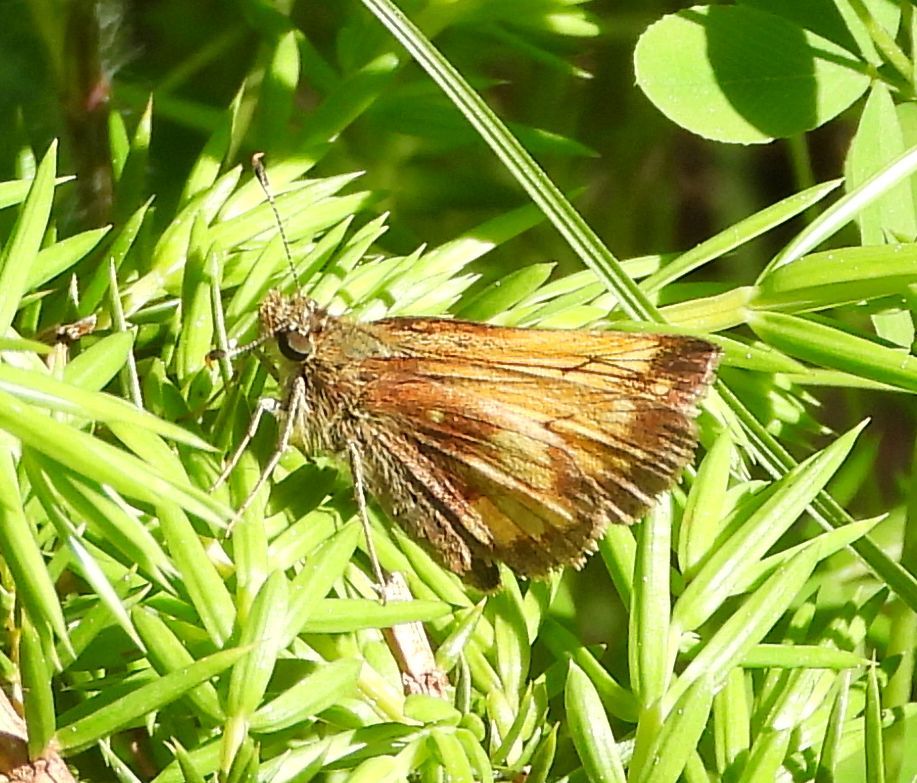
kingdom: Animalia
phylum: Arthropoda
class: Insecta
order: Lepidoptera
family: Hesperiidae
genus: Lon
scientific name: Lon hobomok
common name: Hobomok skipper
